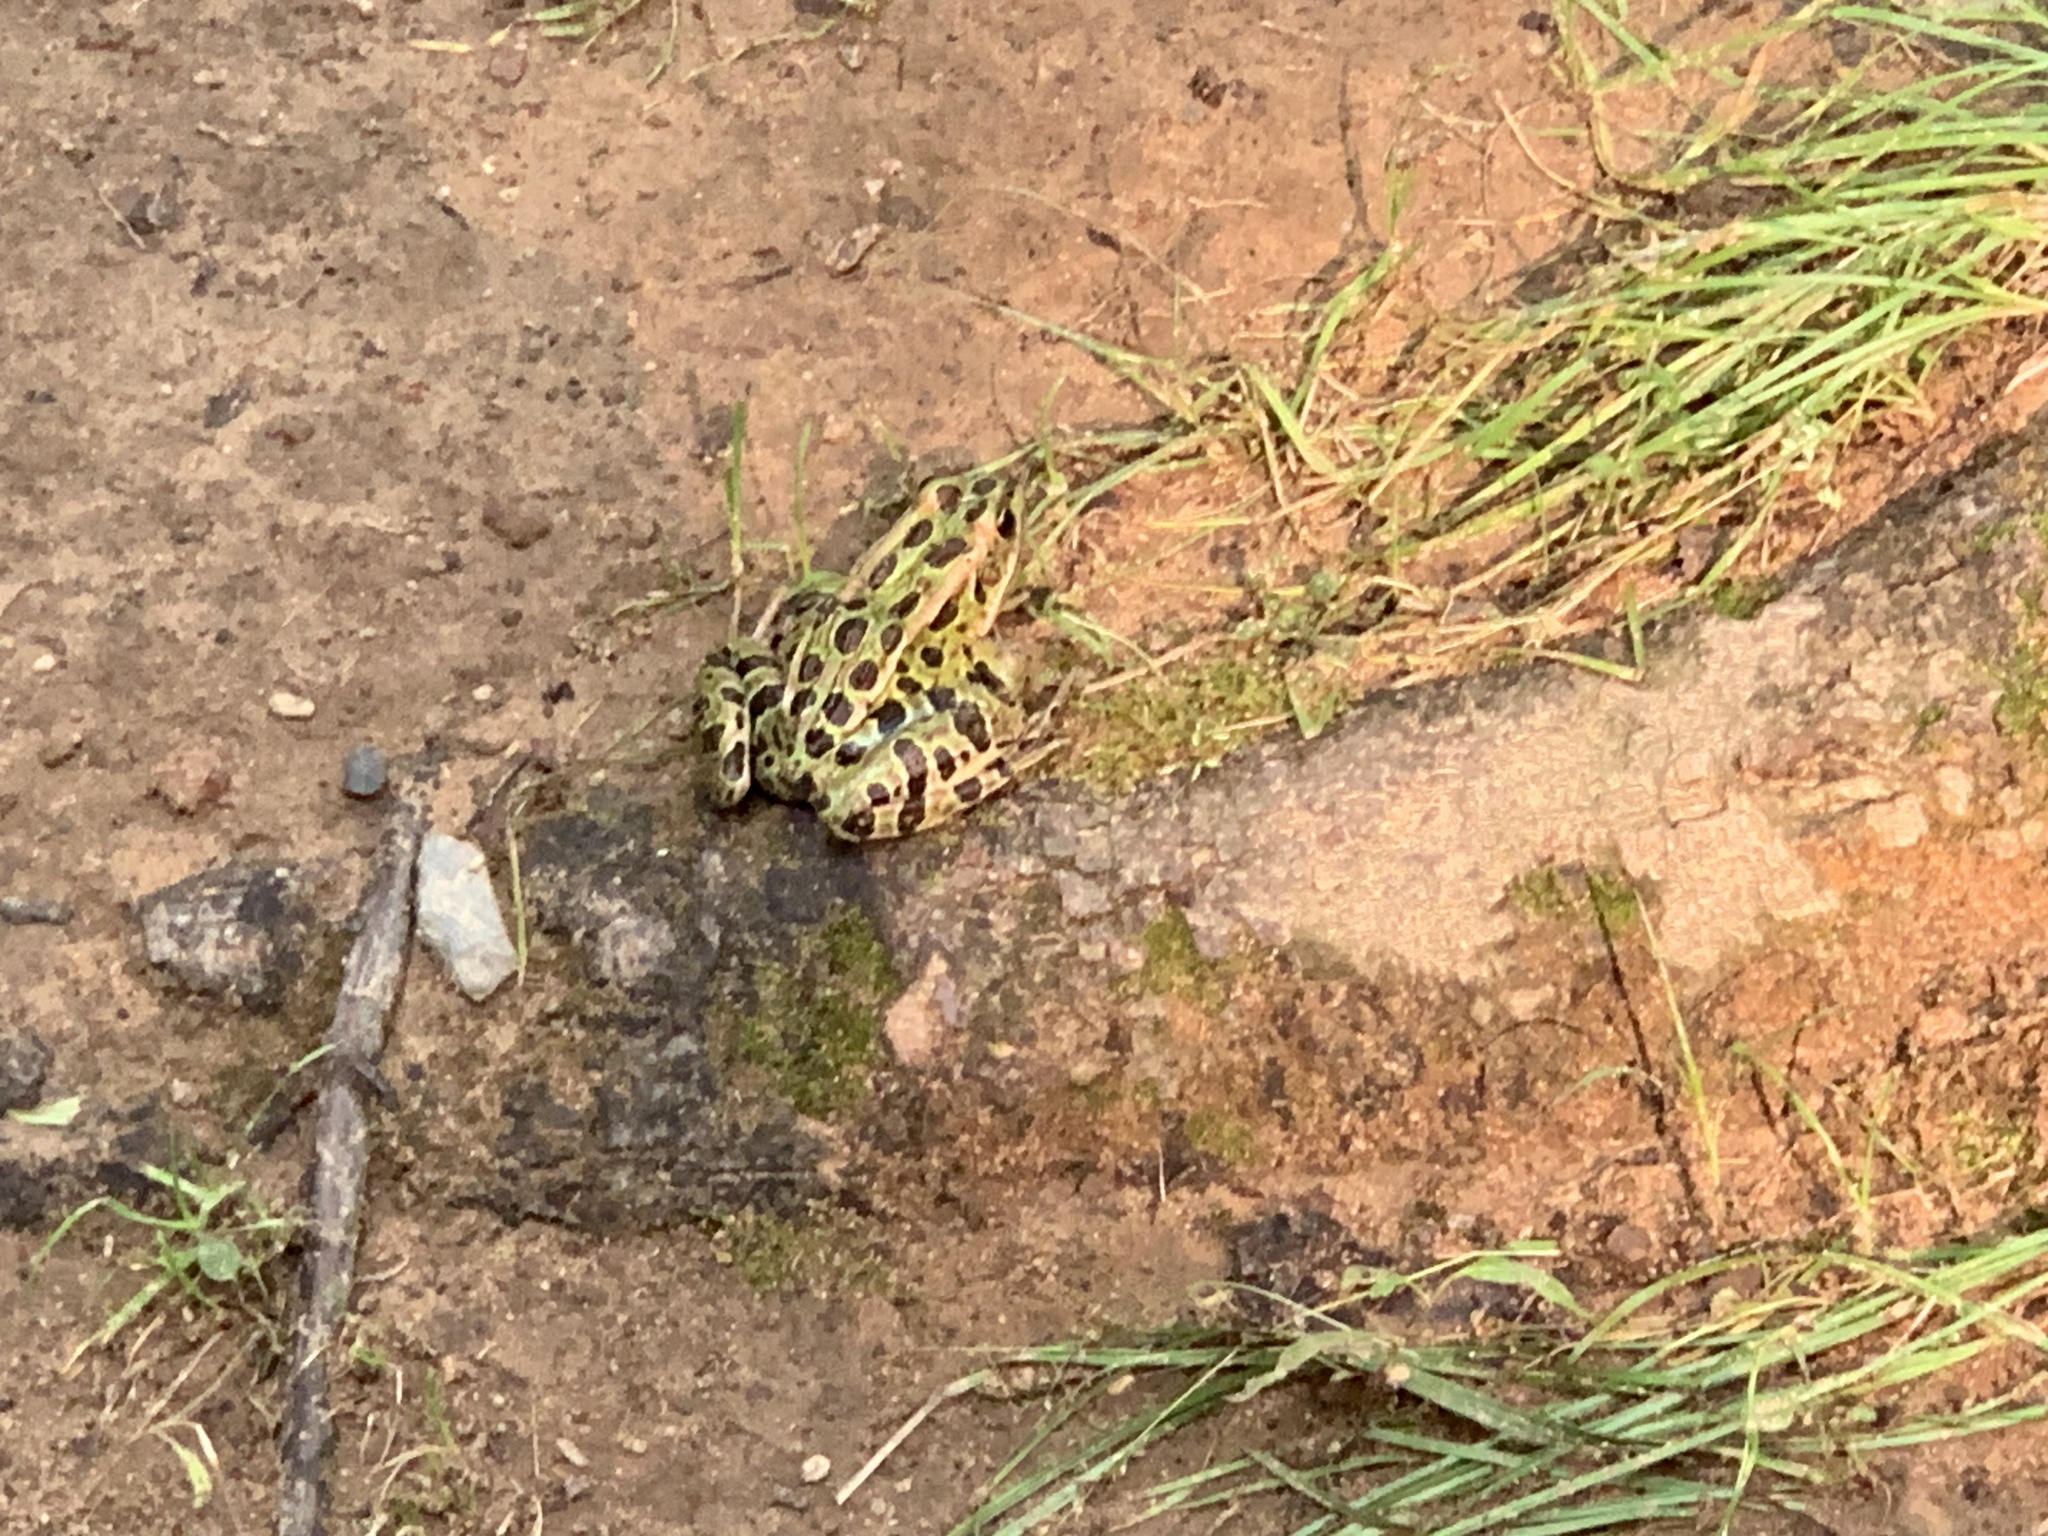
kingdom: Animalia
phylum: Chordata
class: Amphibia
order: Anura
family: Ranidae
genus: Lithobates
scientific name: Lithobates pipiens
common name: Northern leopard frog
